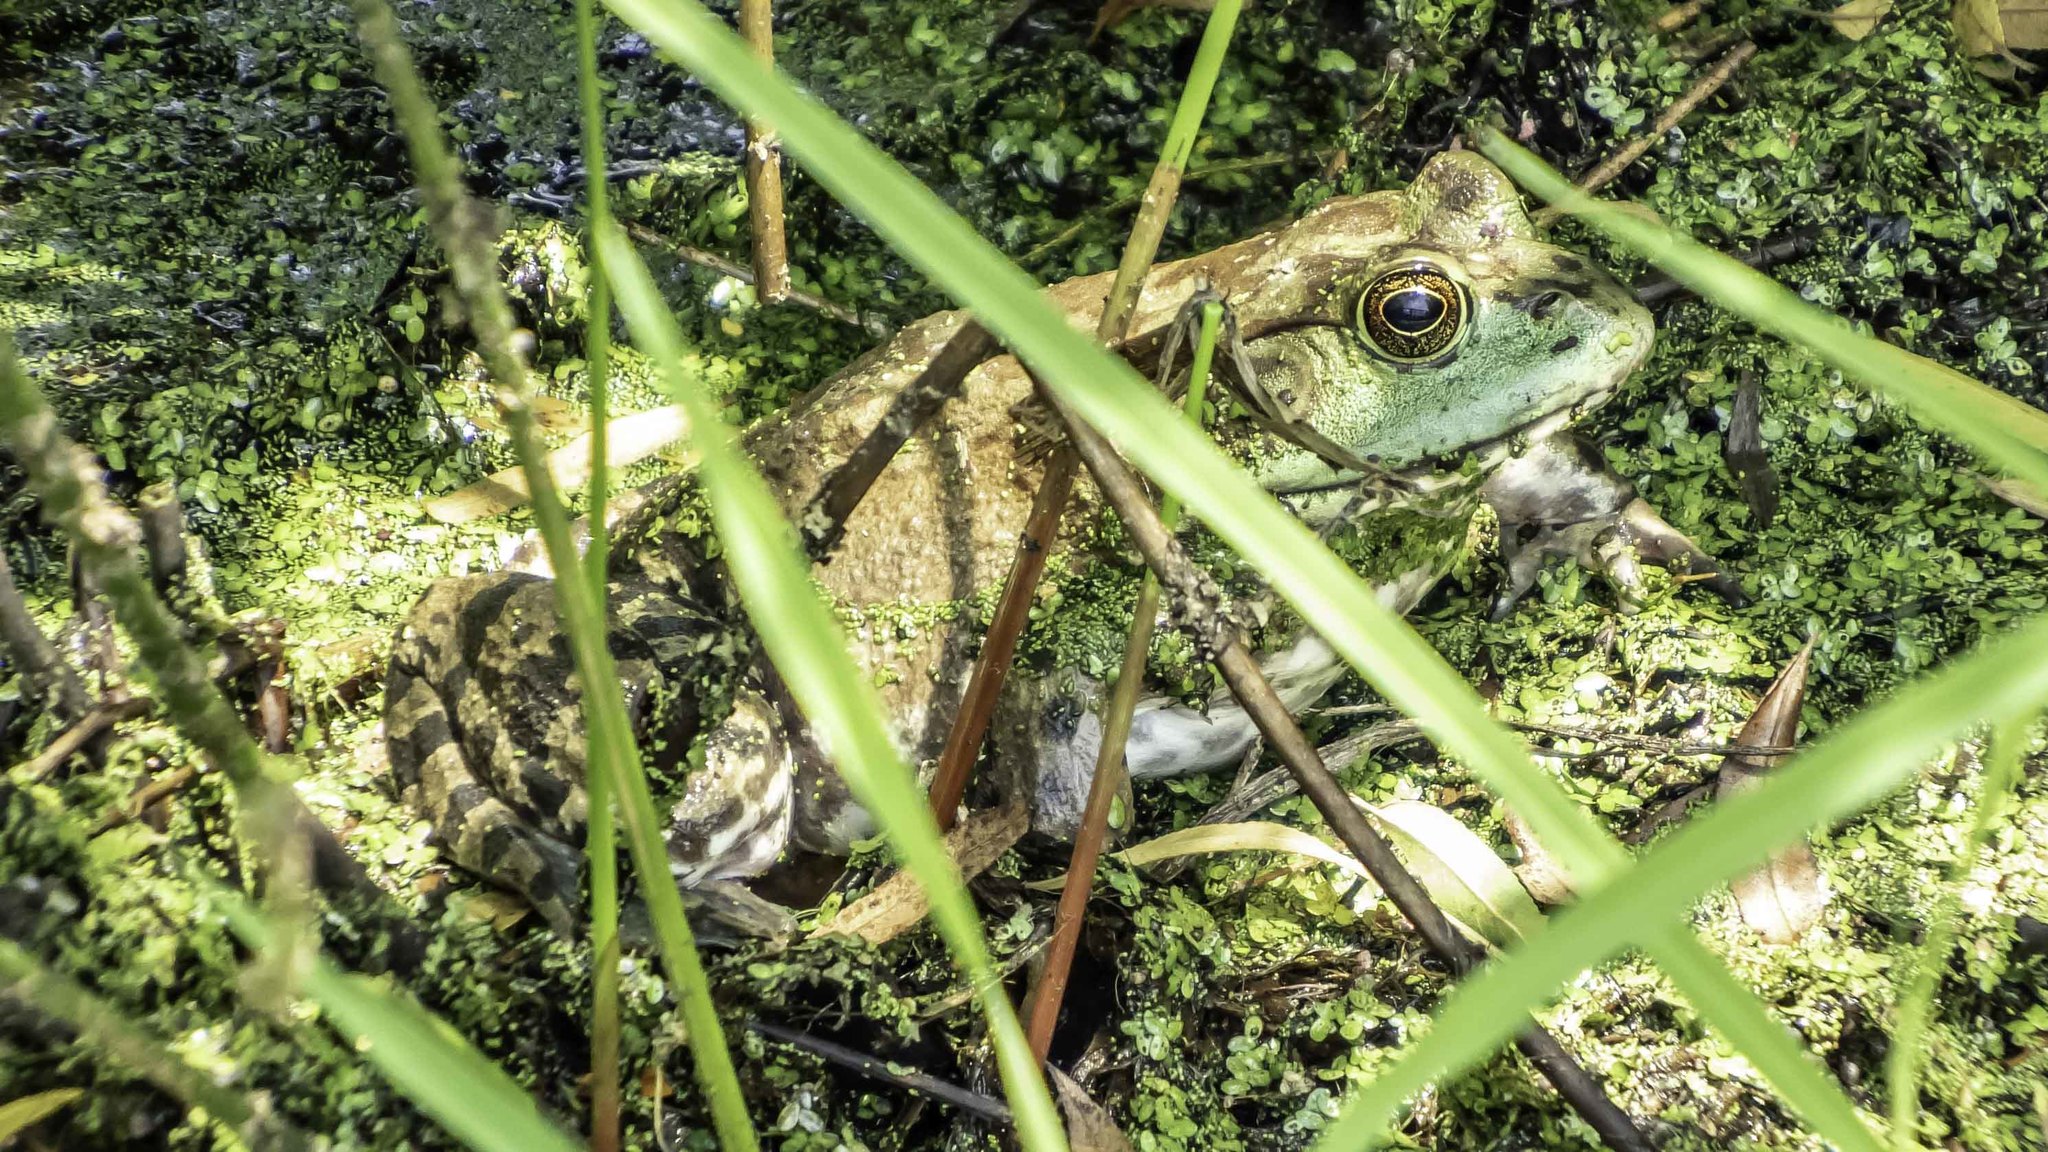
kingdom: Animalia
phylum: Chordata
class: Amphibia
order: Anura
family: Ranidae
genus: Lithobates
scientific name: Lithobates catesbeianus
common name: American bullfrog
